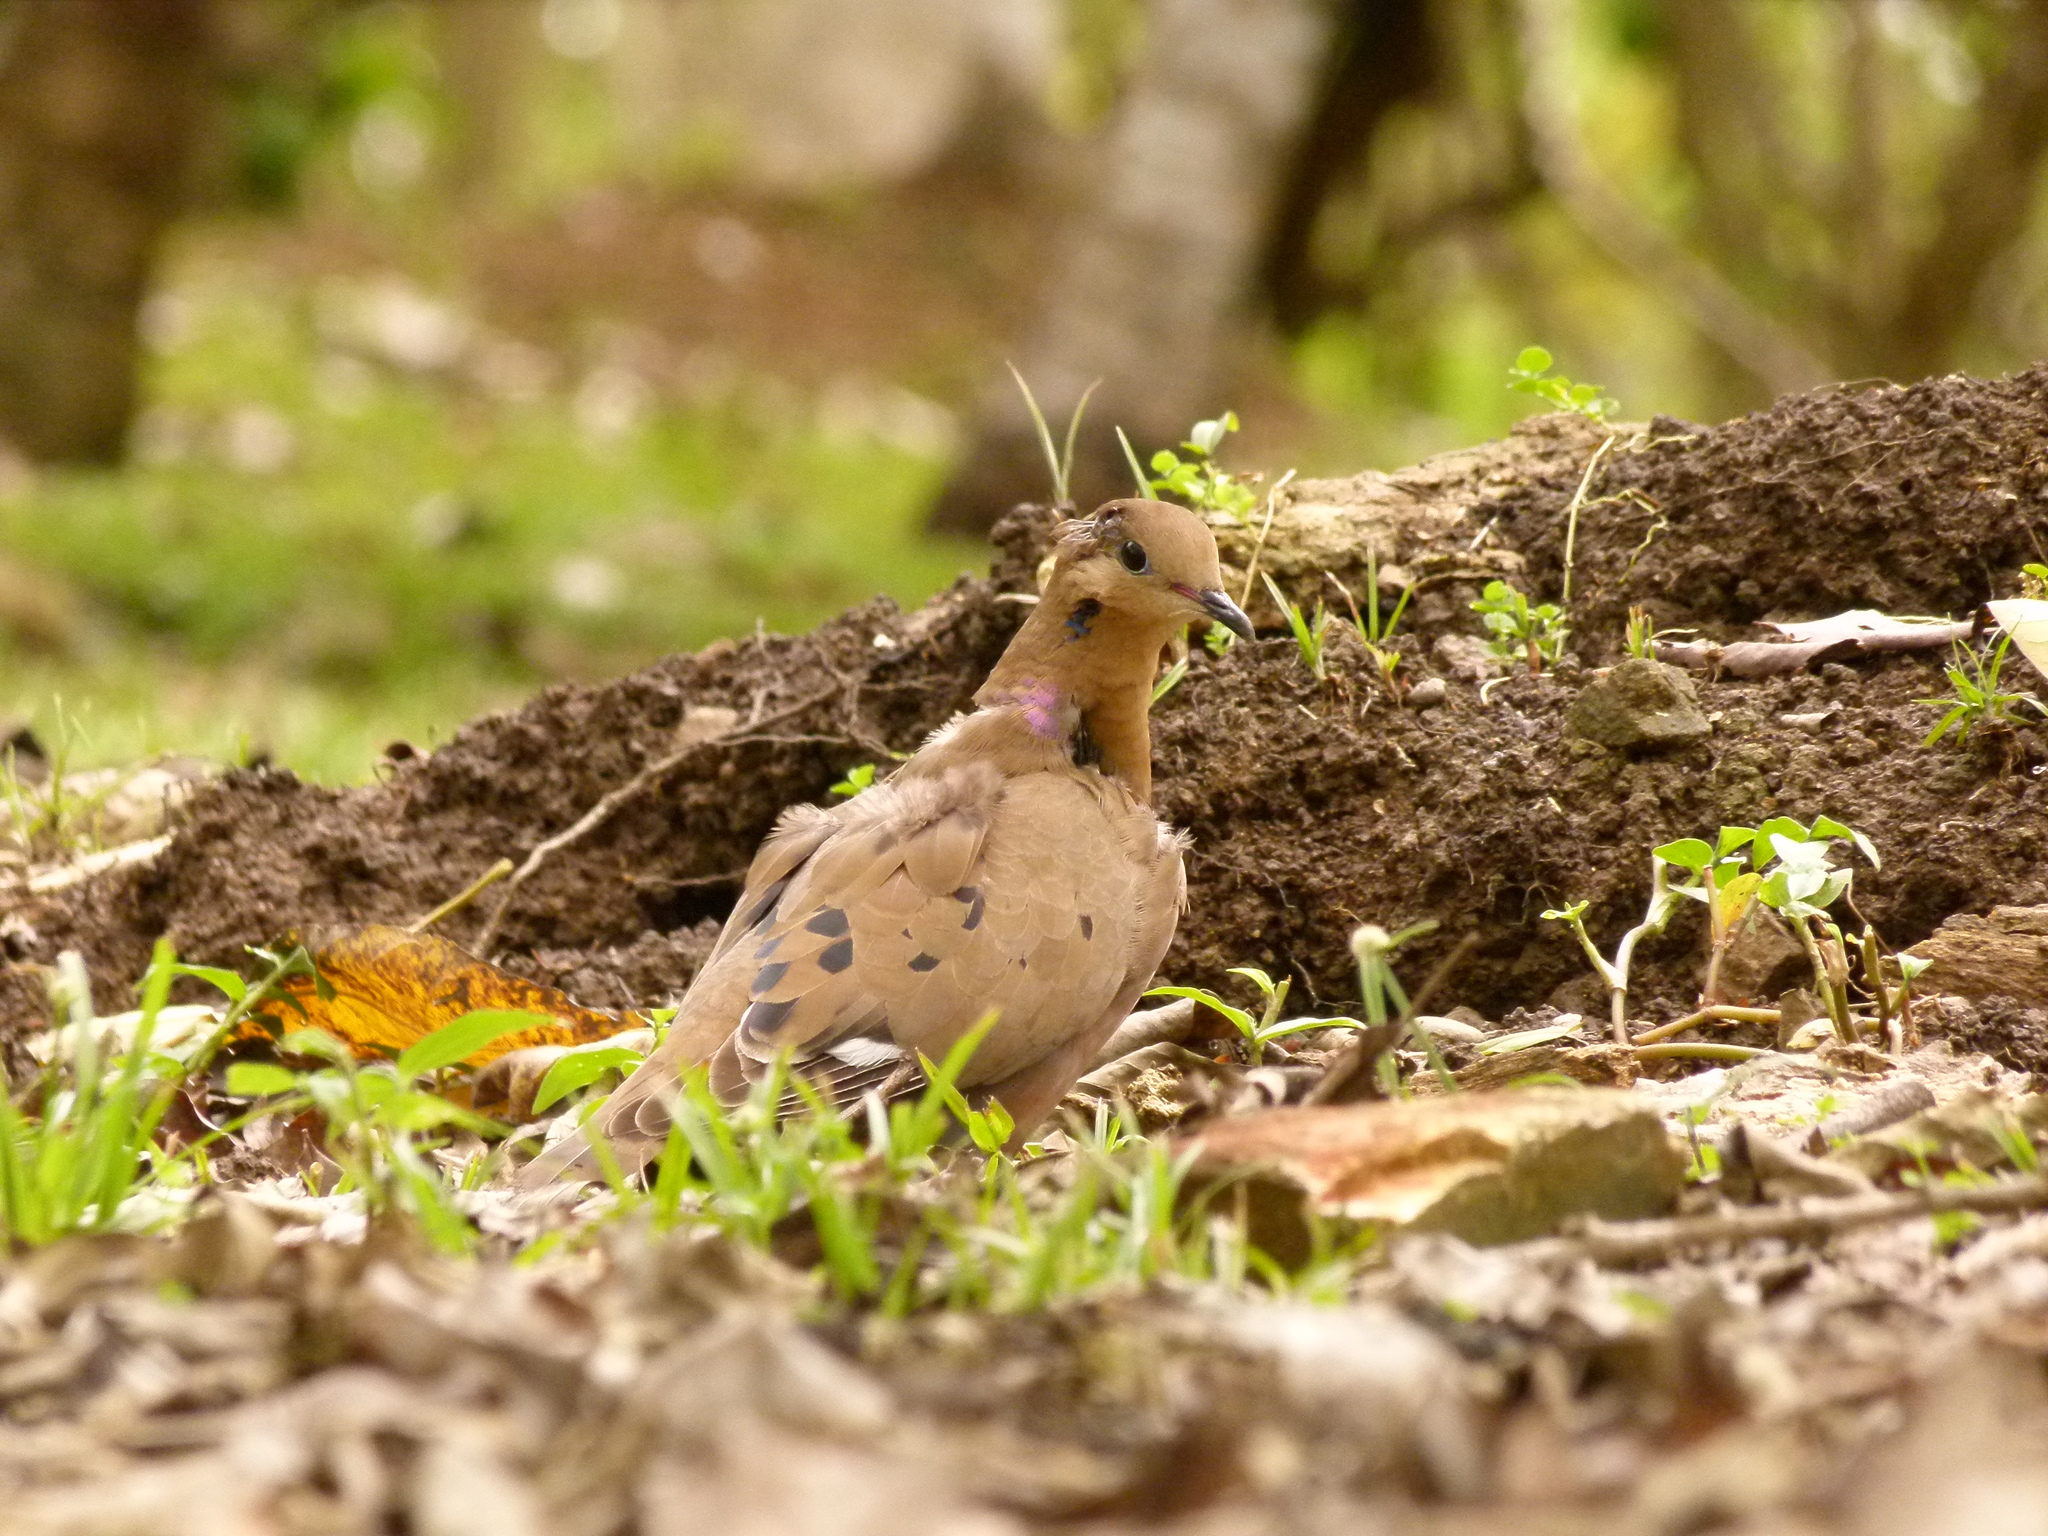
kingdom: Animalia
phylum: Chordata
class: Aves
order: Columbiformes
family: Columbidae
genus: Zenaida
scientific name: Zenaida aurita
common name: Zenaida dove
